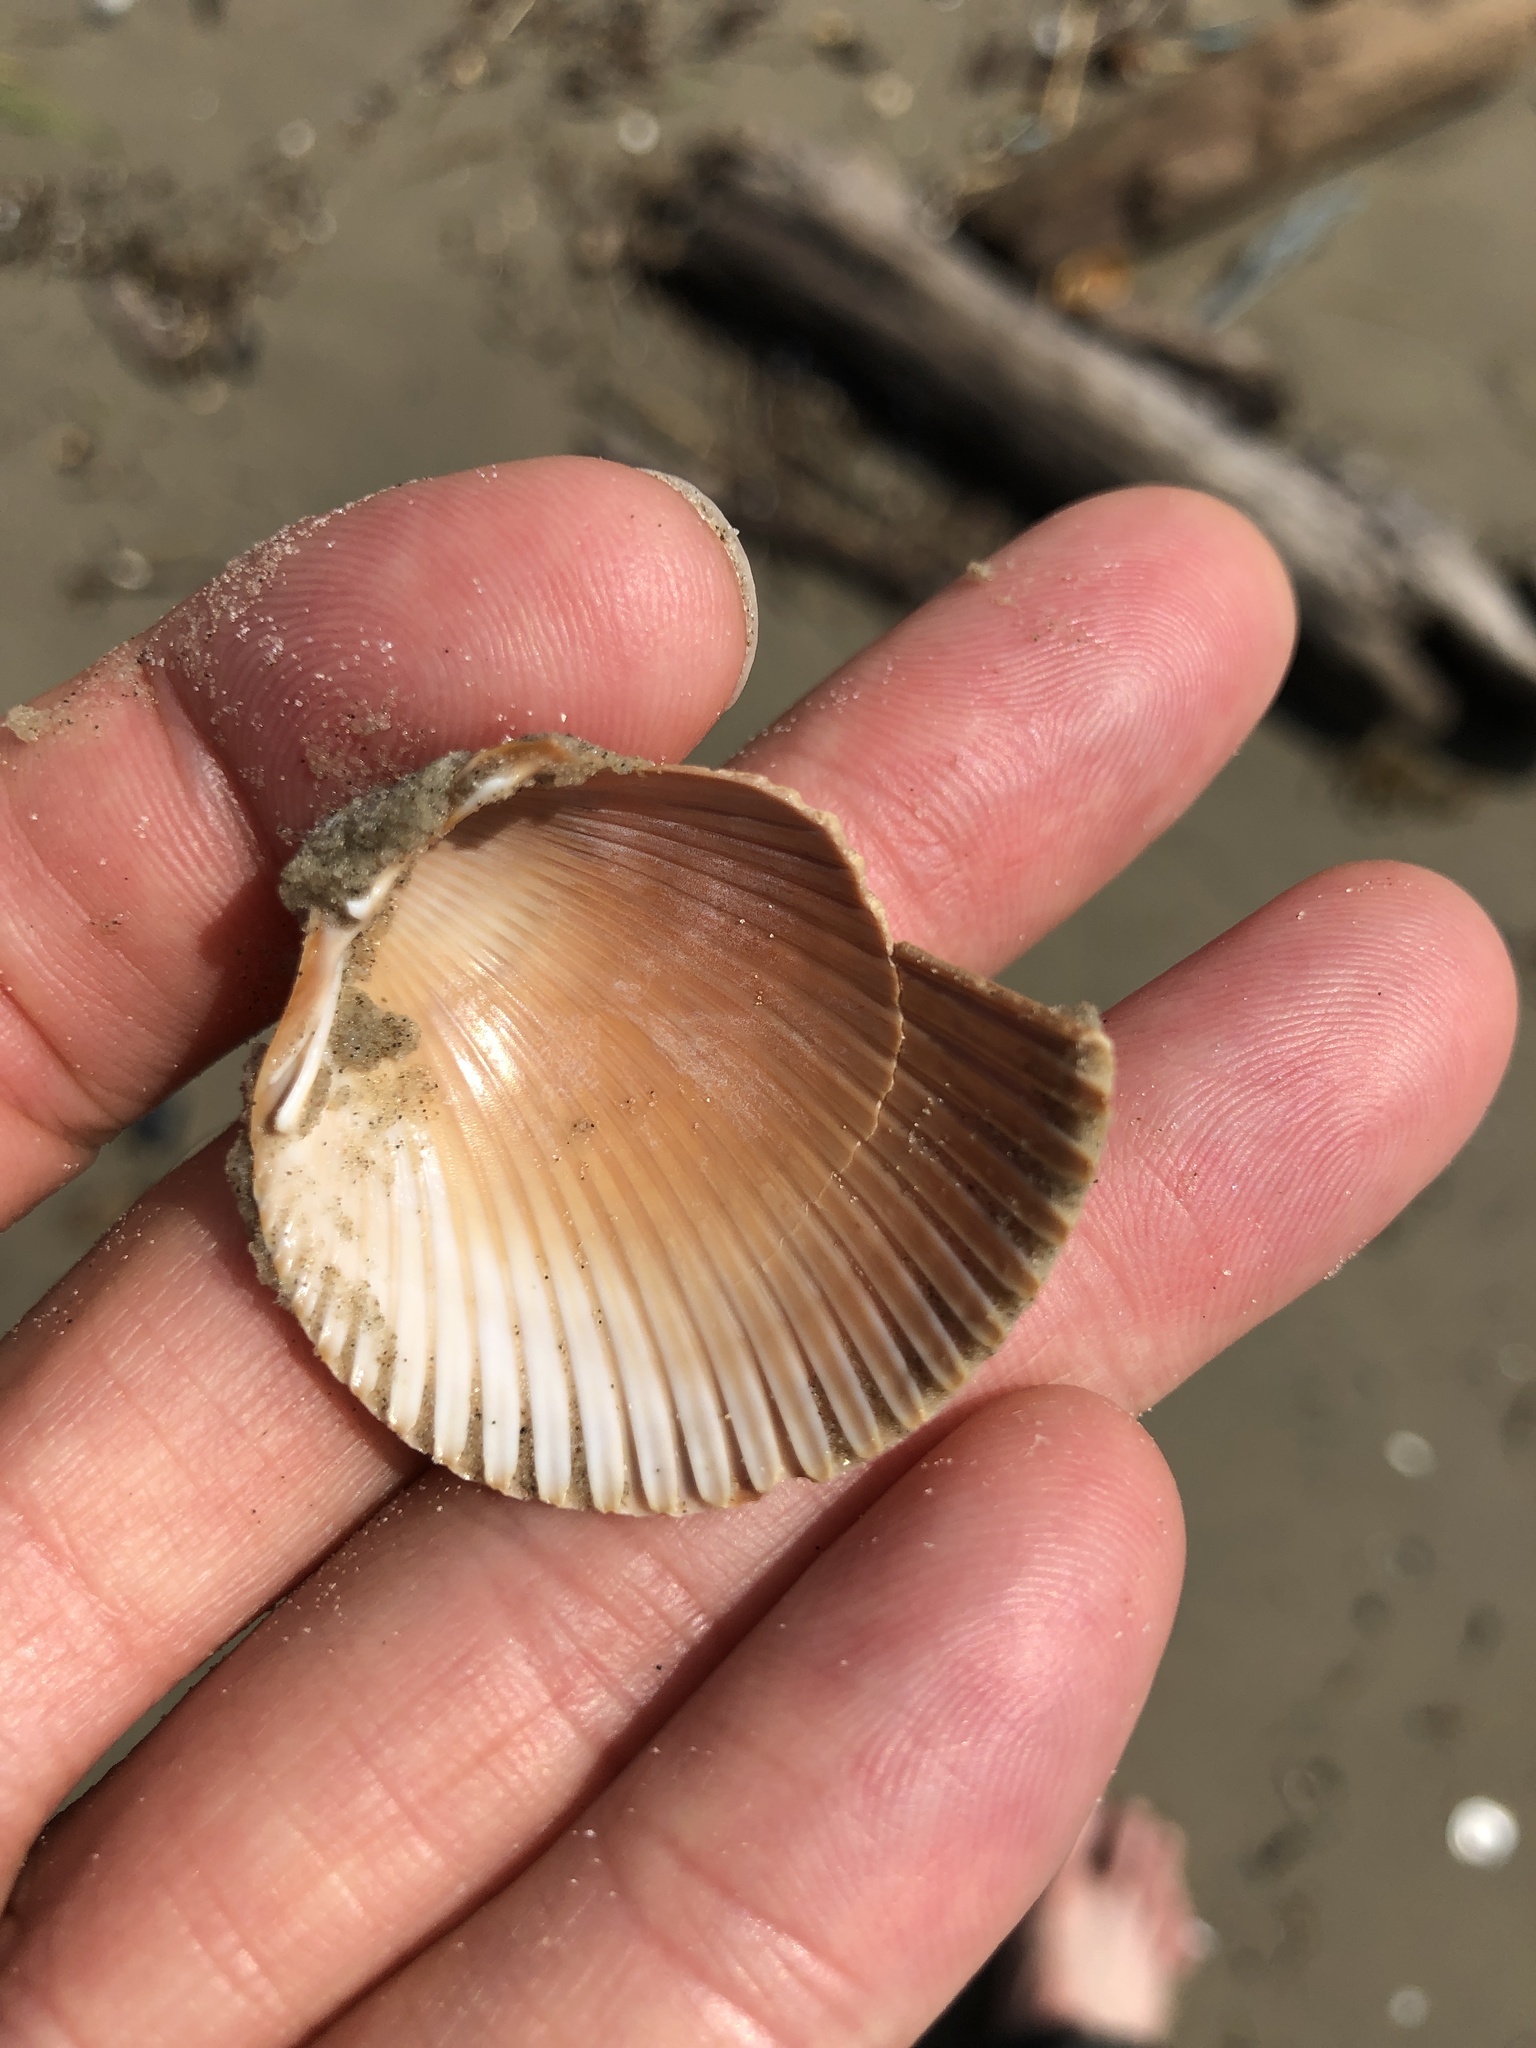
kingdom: Animalia
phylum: Mollusca
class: Bivalvia
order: Cardiida
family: Cardiidae
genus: Dinocardium
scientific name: Dinocardium robustum
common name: Atlantic giant cockle
